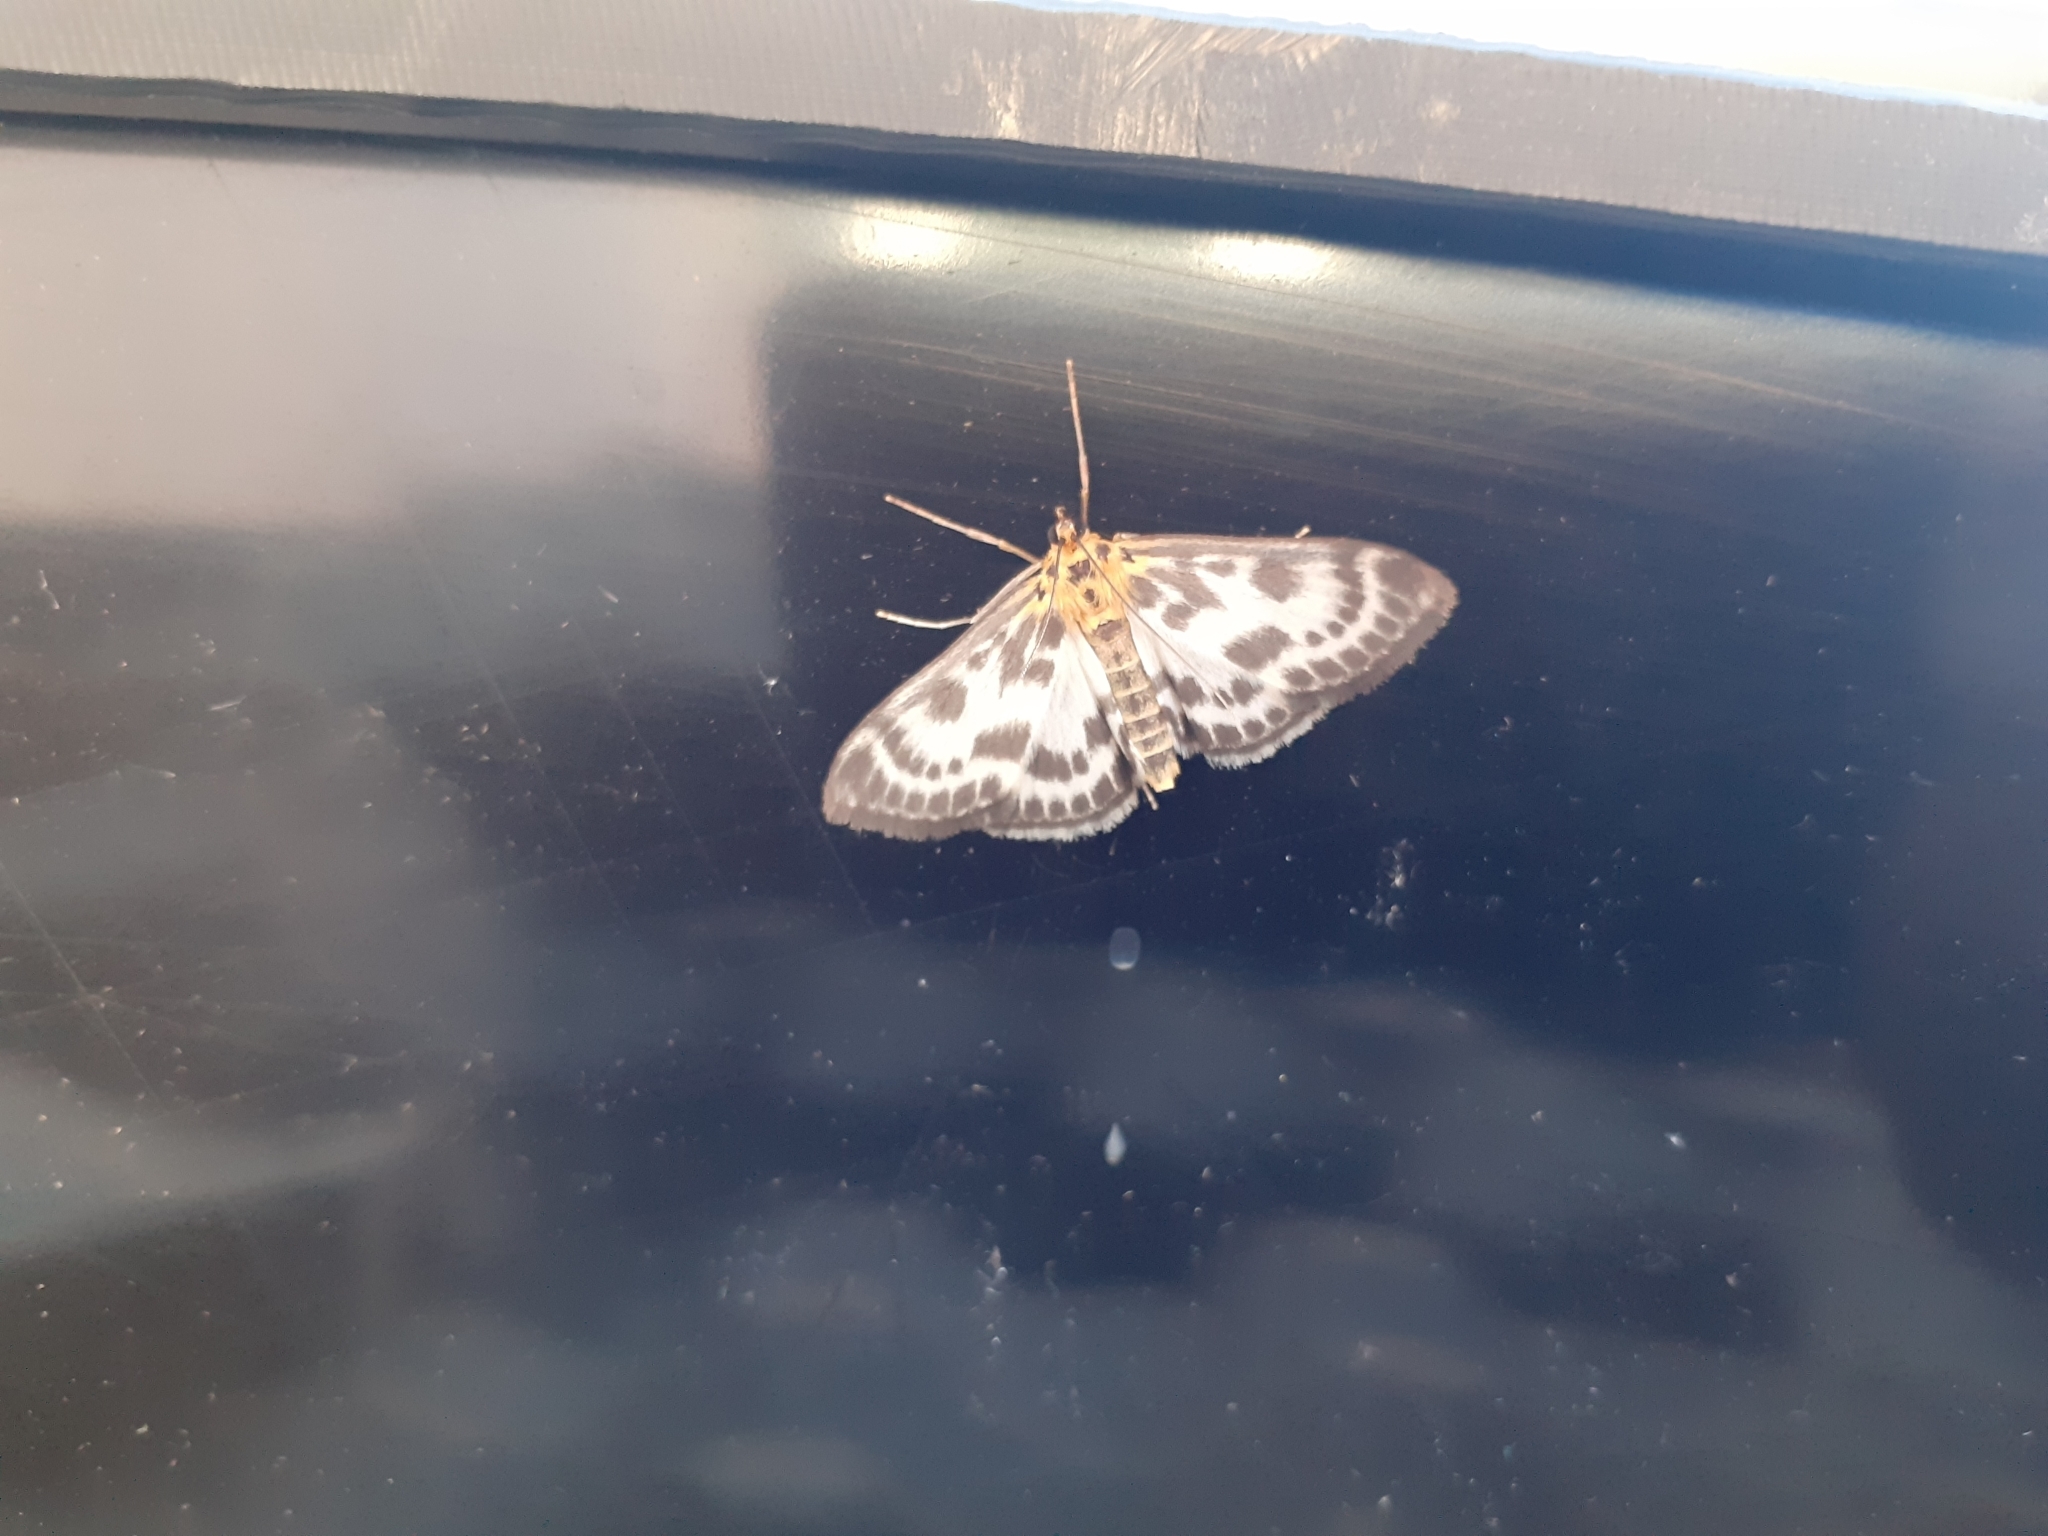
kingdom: Animalia
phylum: Arthropoda
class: Insecta
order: Lepidoptera
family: Crambidae
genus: Anania
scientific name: Anania hortulata
